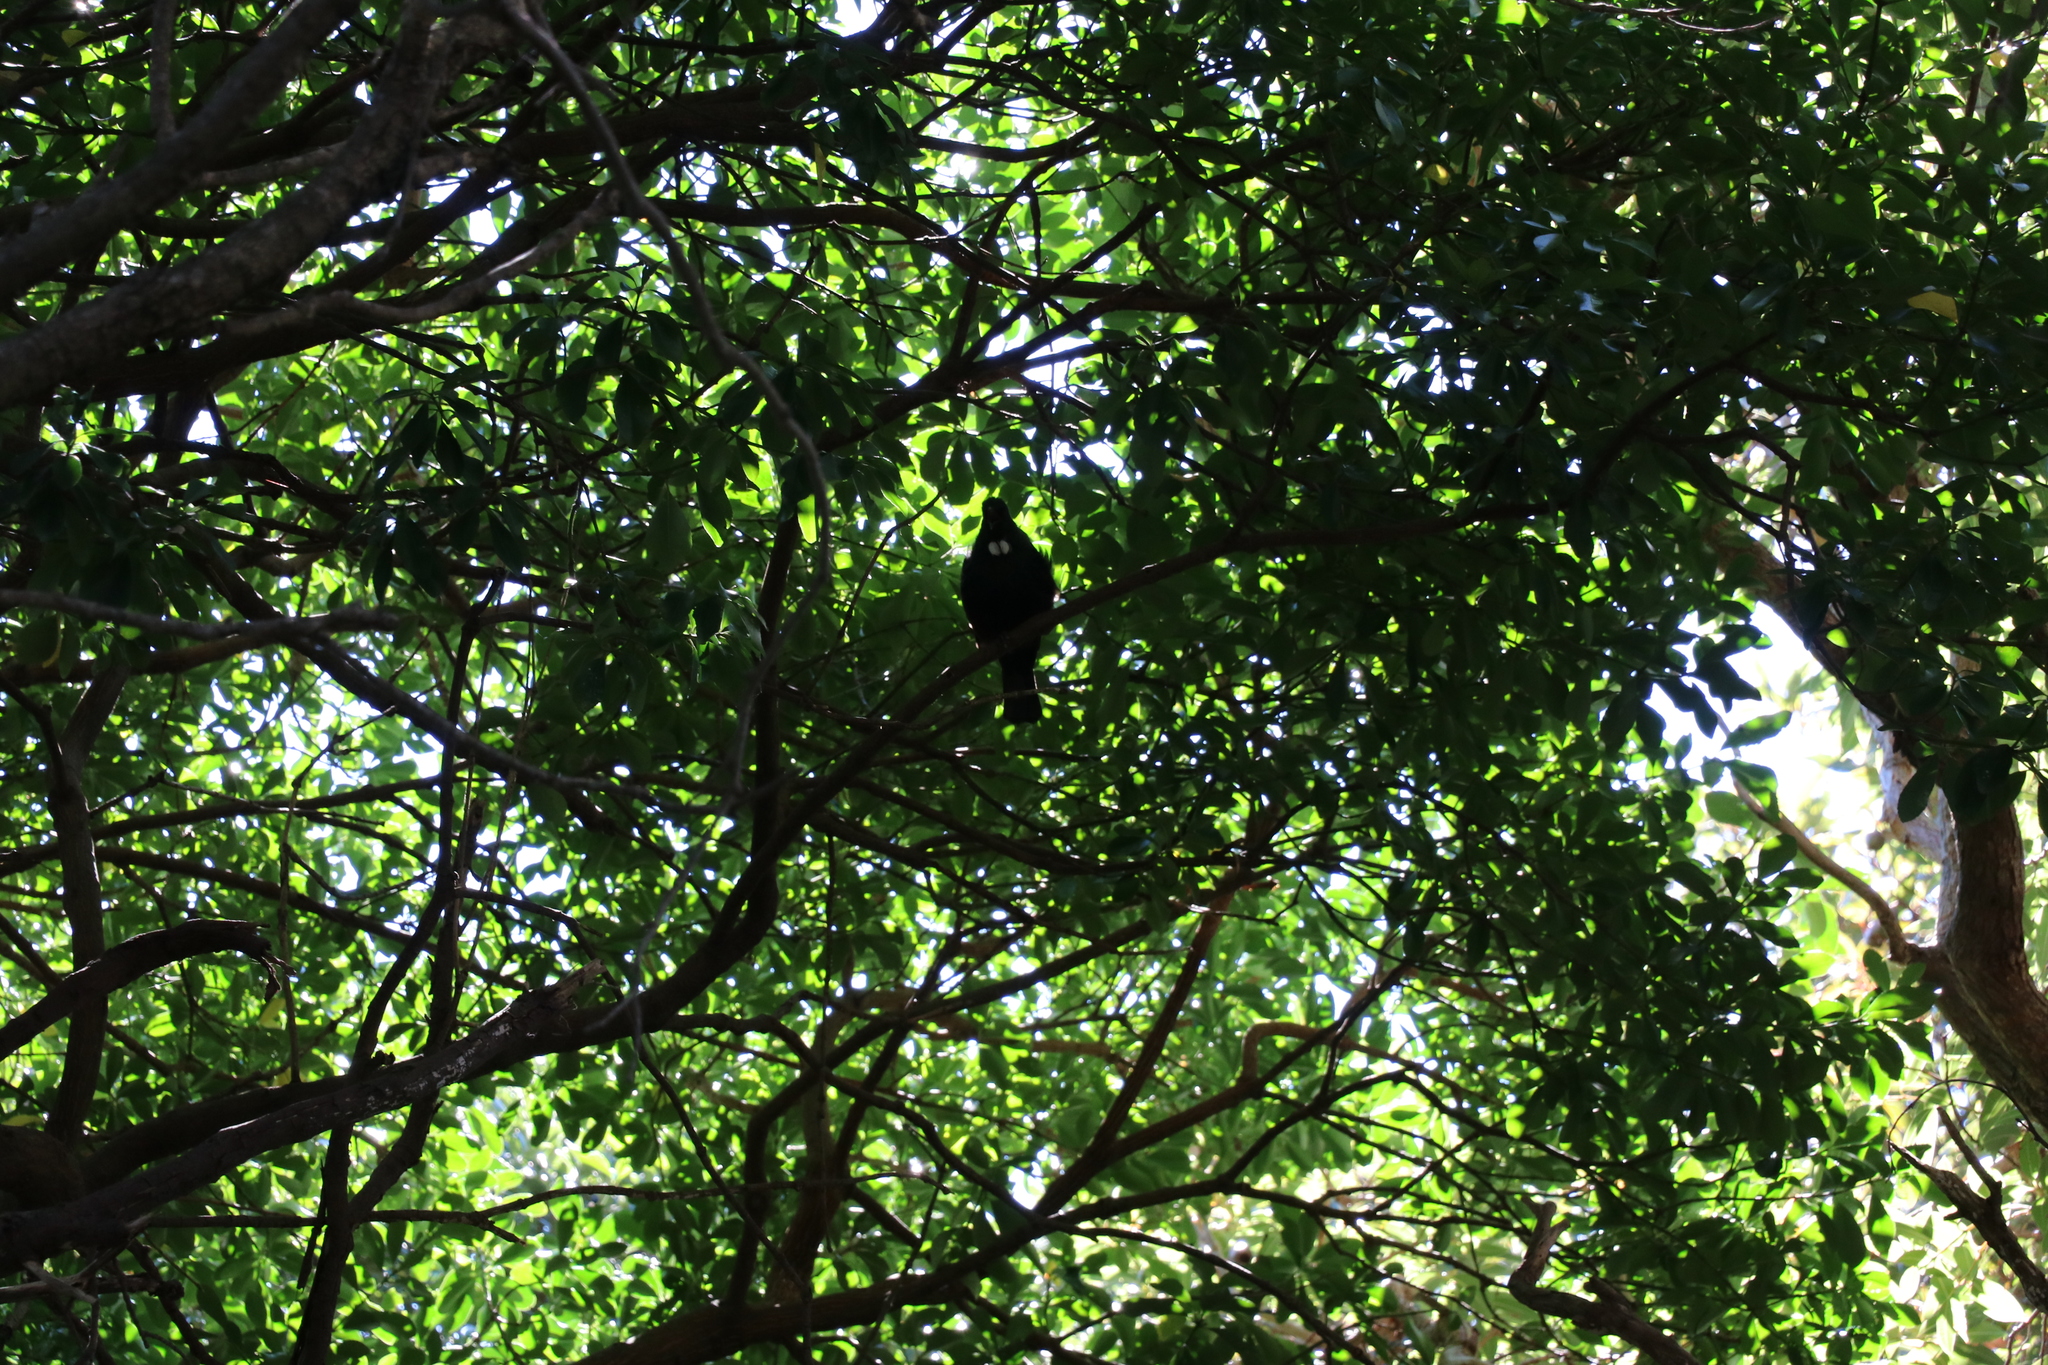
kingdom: Animalia
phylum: Chordata
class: Aves
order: Passeriformes
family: Meliphagidae
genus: Prosthemadera
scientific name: Prosthemadera novaeseelandiae
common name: Tui
